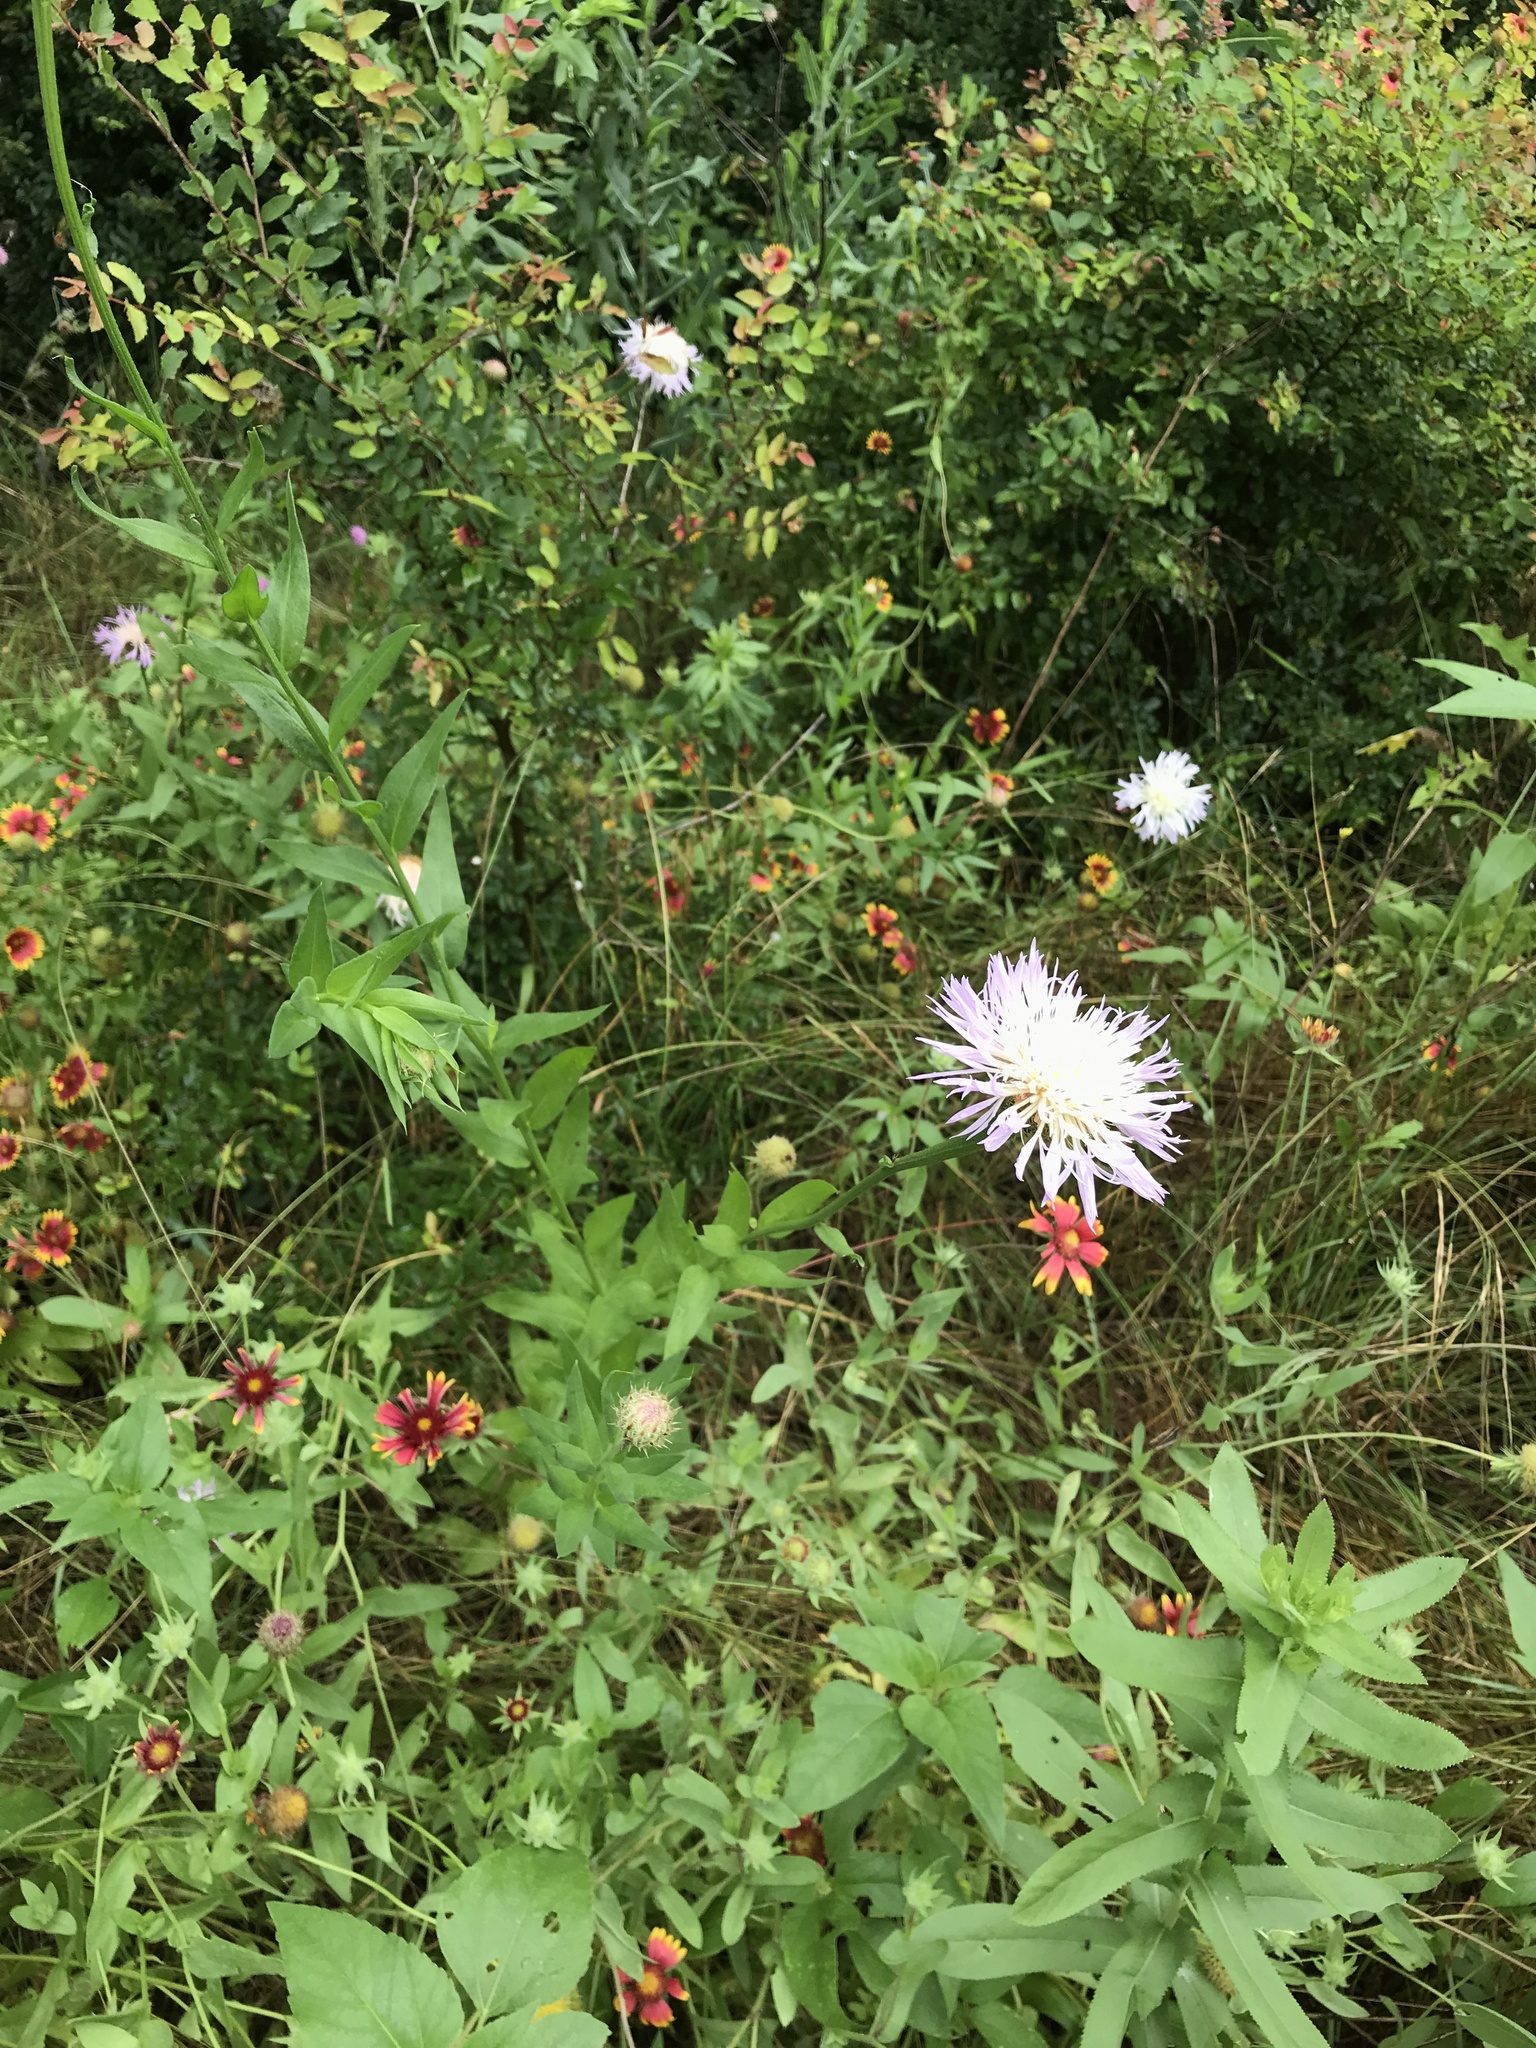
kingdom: Plantae
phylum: Tracheophyta
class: Magnoliopsida
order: Asterales
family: Asteraceae
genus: Plectocephalus
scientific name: Plectocephalus americanus
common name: American basket-flower
